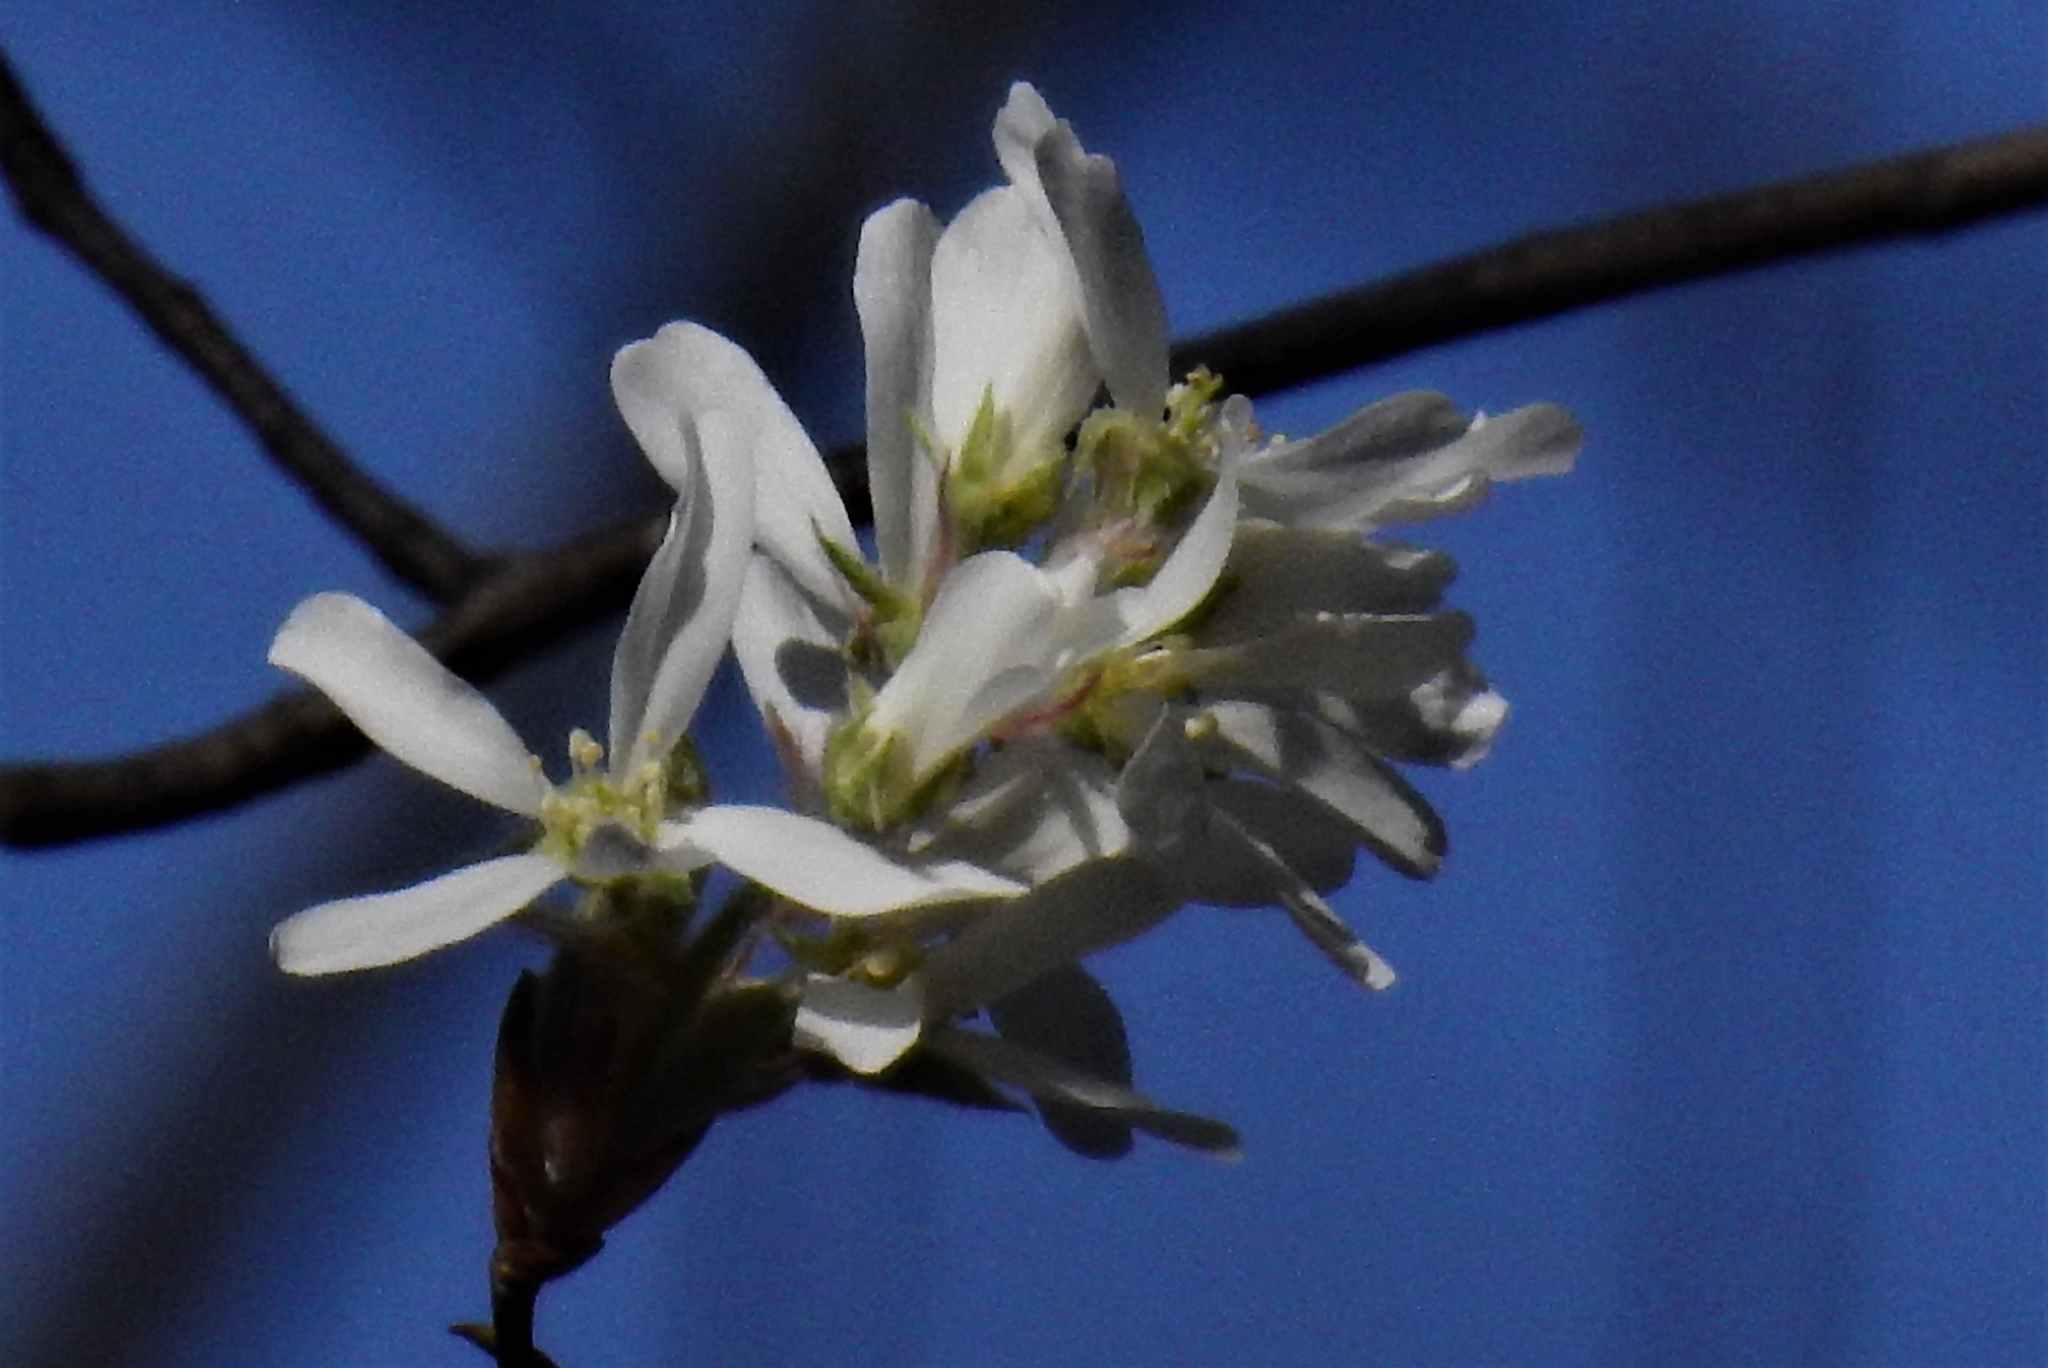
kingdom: Plantae
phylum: Tracheophyta
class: Magnoliopsida
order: Rosales
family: Rosaceae
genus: Amelanchier
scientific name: Amelanchier arborea
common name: Downy serviceberry
